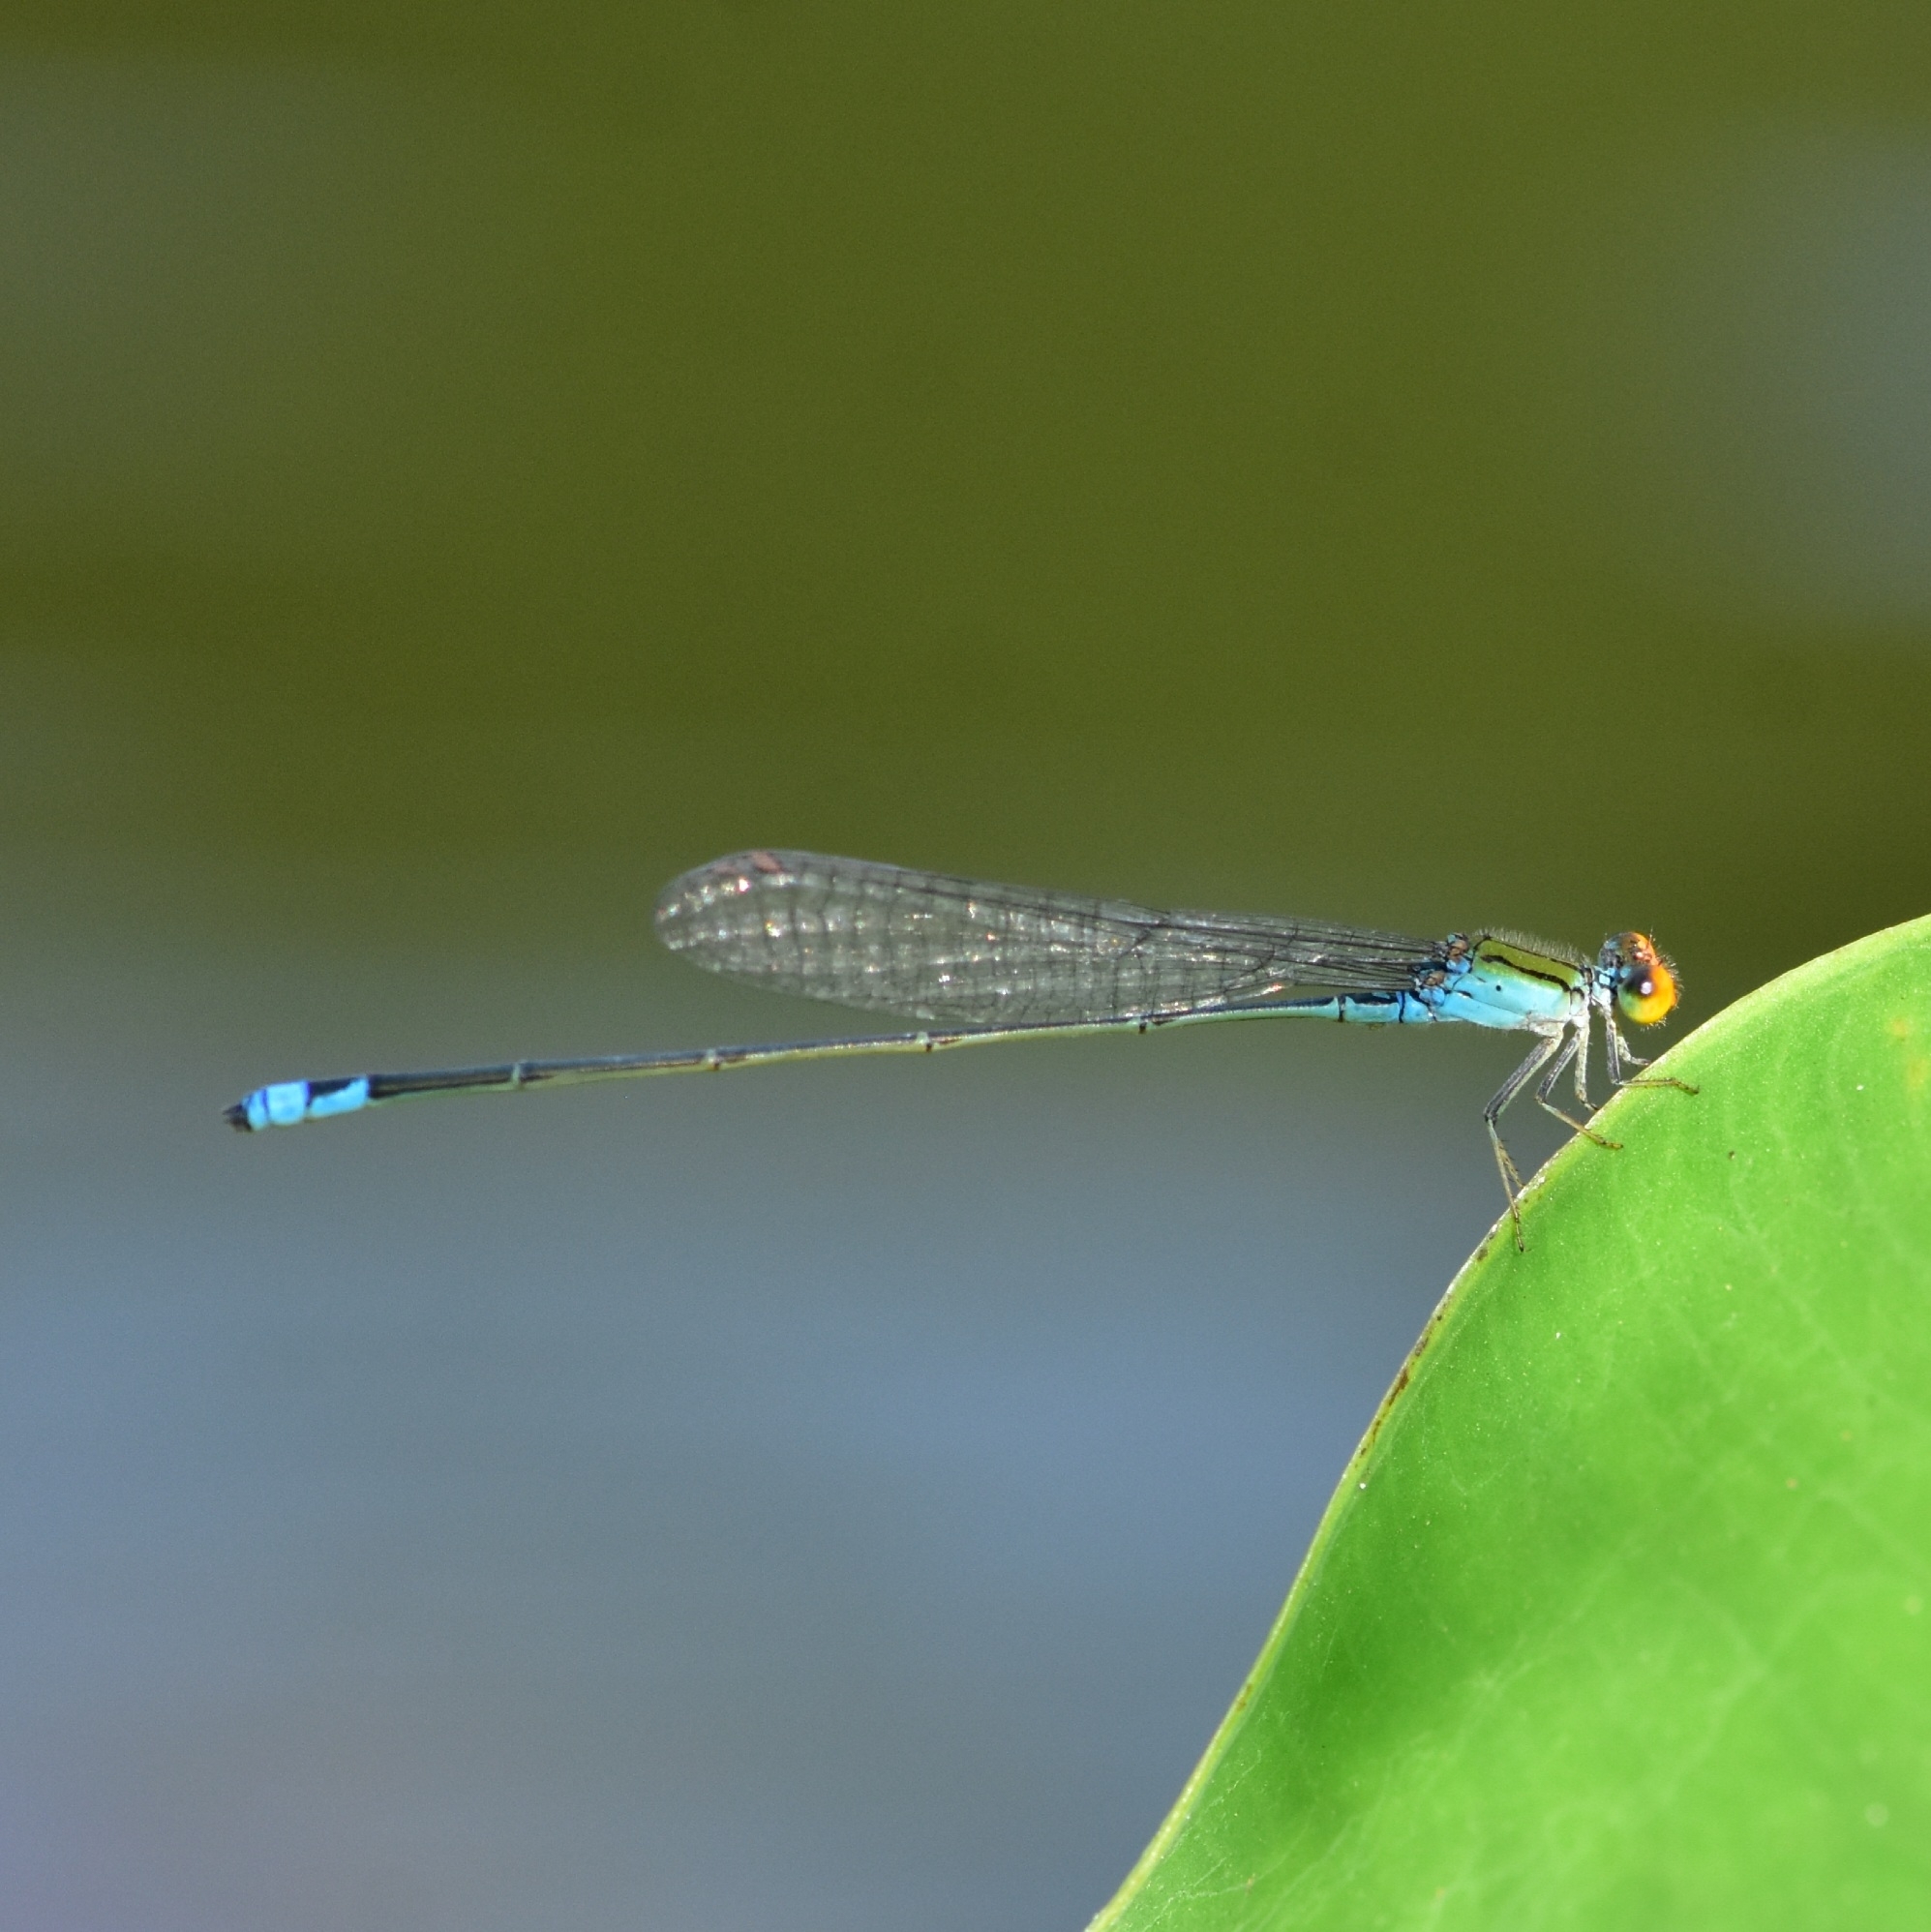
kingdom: Animalia
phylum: Arthropoda
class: Insecta
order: Odonata
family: Coenagrionidae
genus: Pseudagrion
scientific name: Pseudagrion rubriceps
